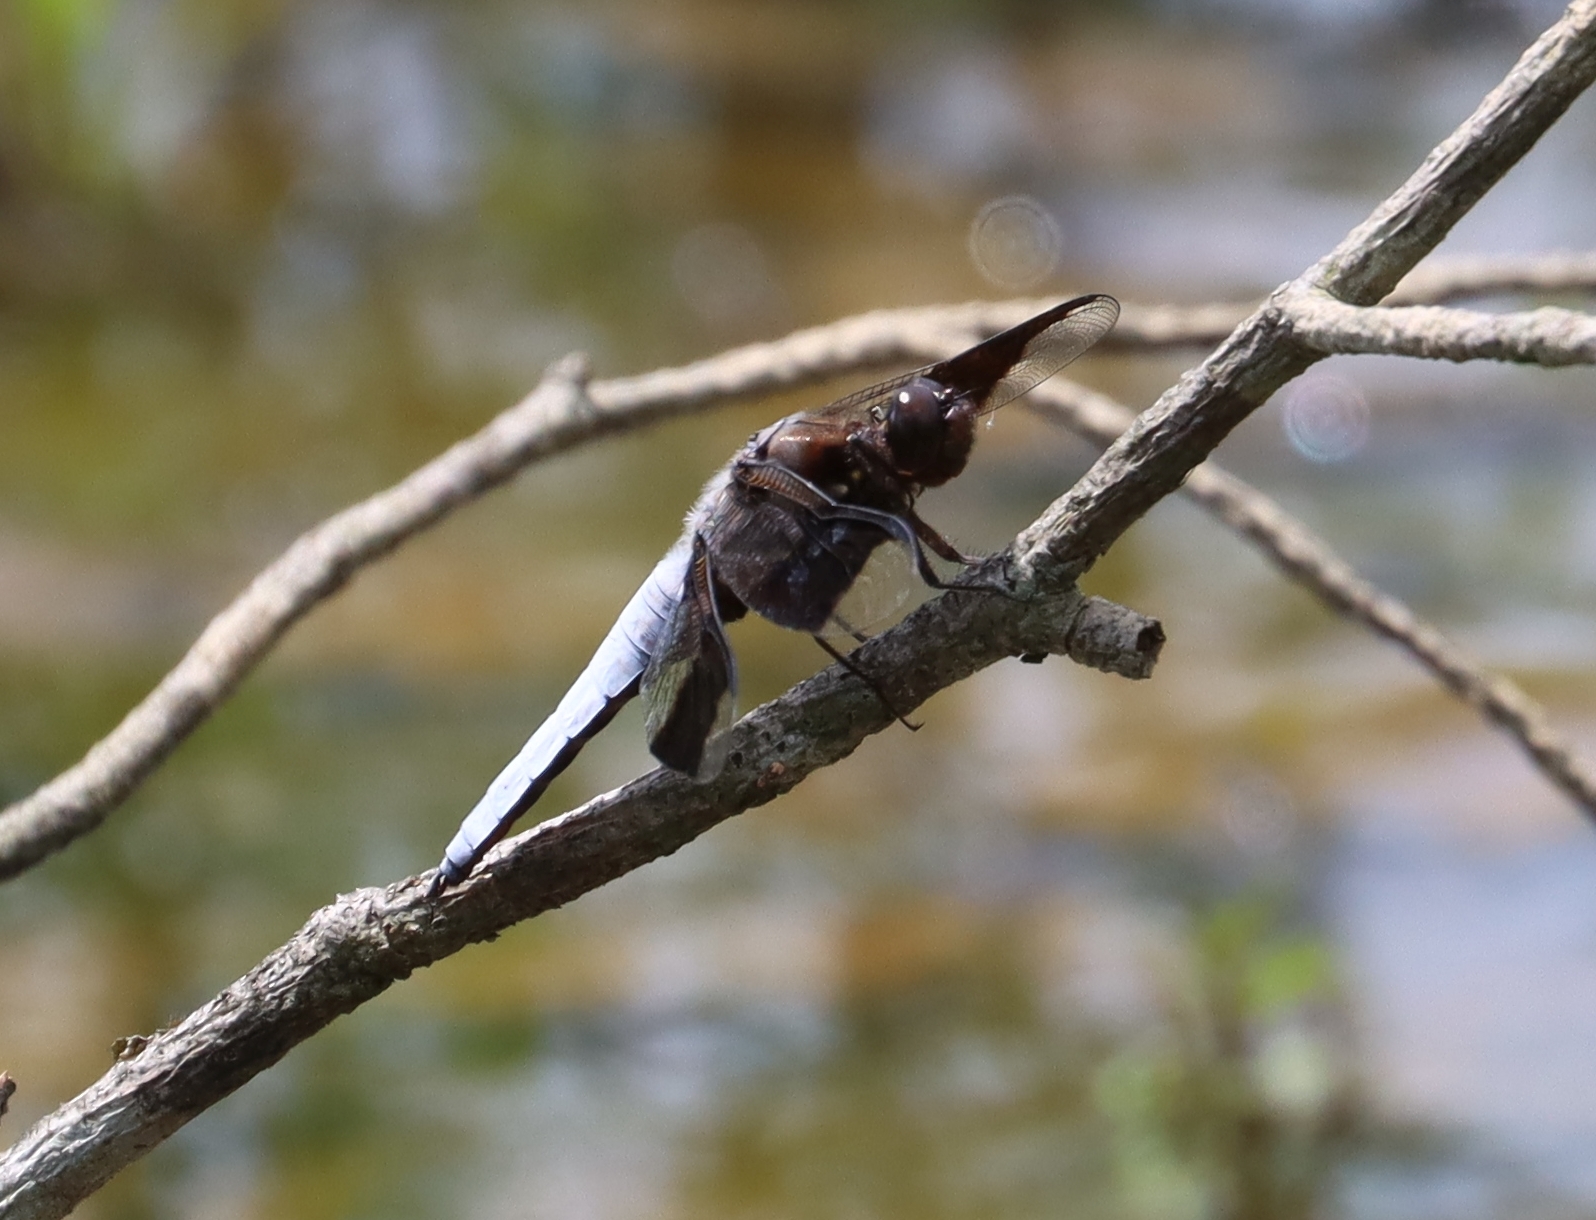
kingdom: Animalia
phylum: Arthropoda
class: Insecta
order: Odonata
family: Libellulidae
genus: Plathemis
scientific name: Plathemis lydia
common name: Common whitetail
